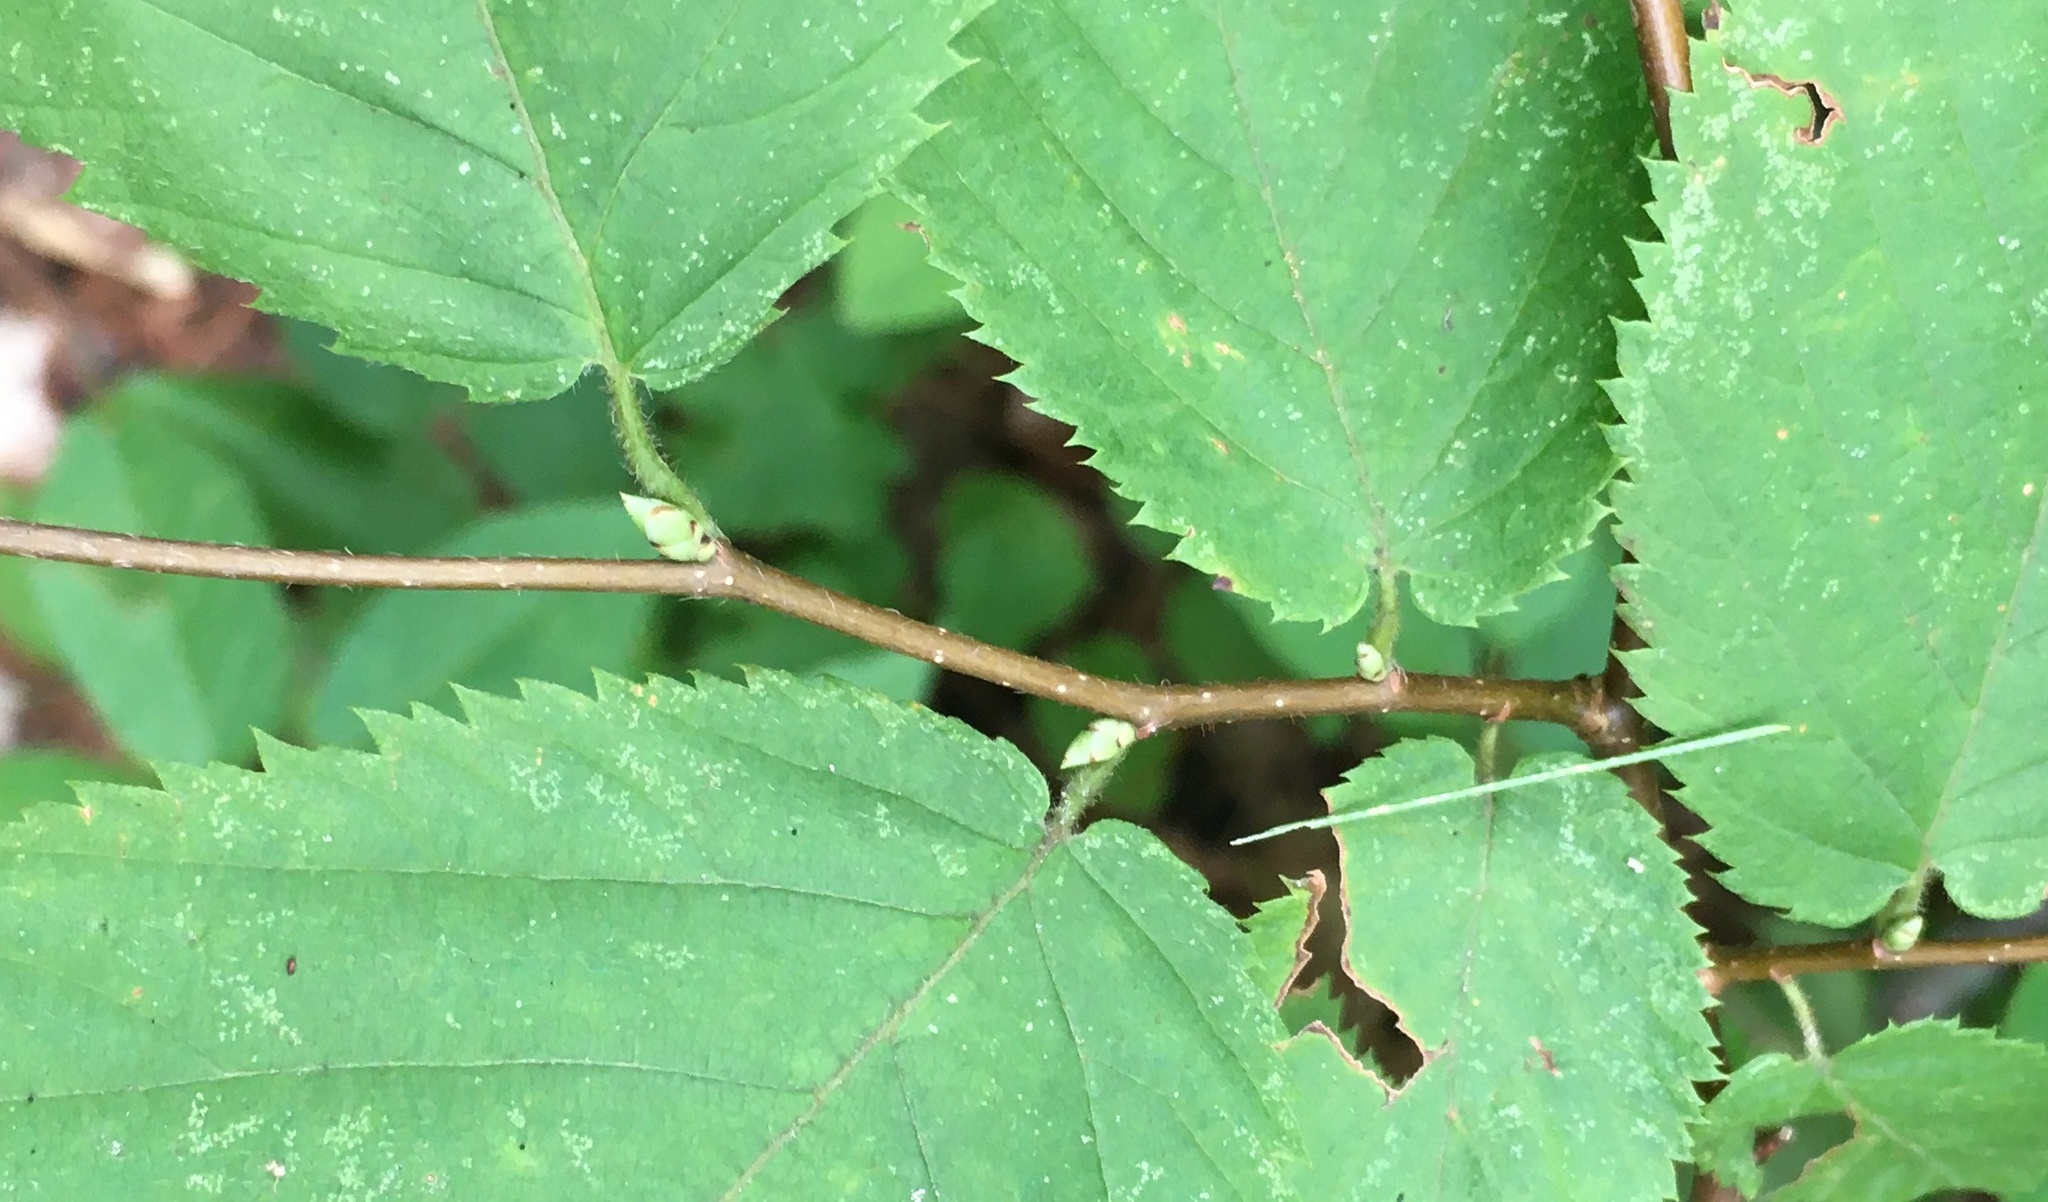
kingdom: Plantae
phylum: Tracheophyta
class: Magnoliopsida
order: Fagales
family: Betulaceae
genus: Ostrya
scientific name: Ostrya virginiana
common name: Ironwood
